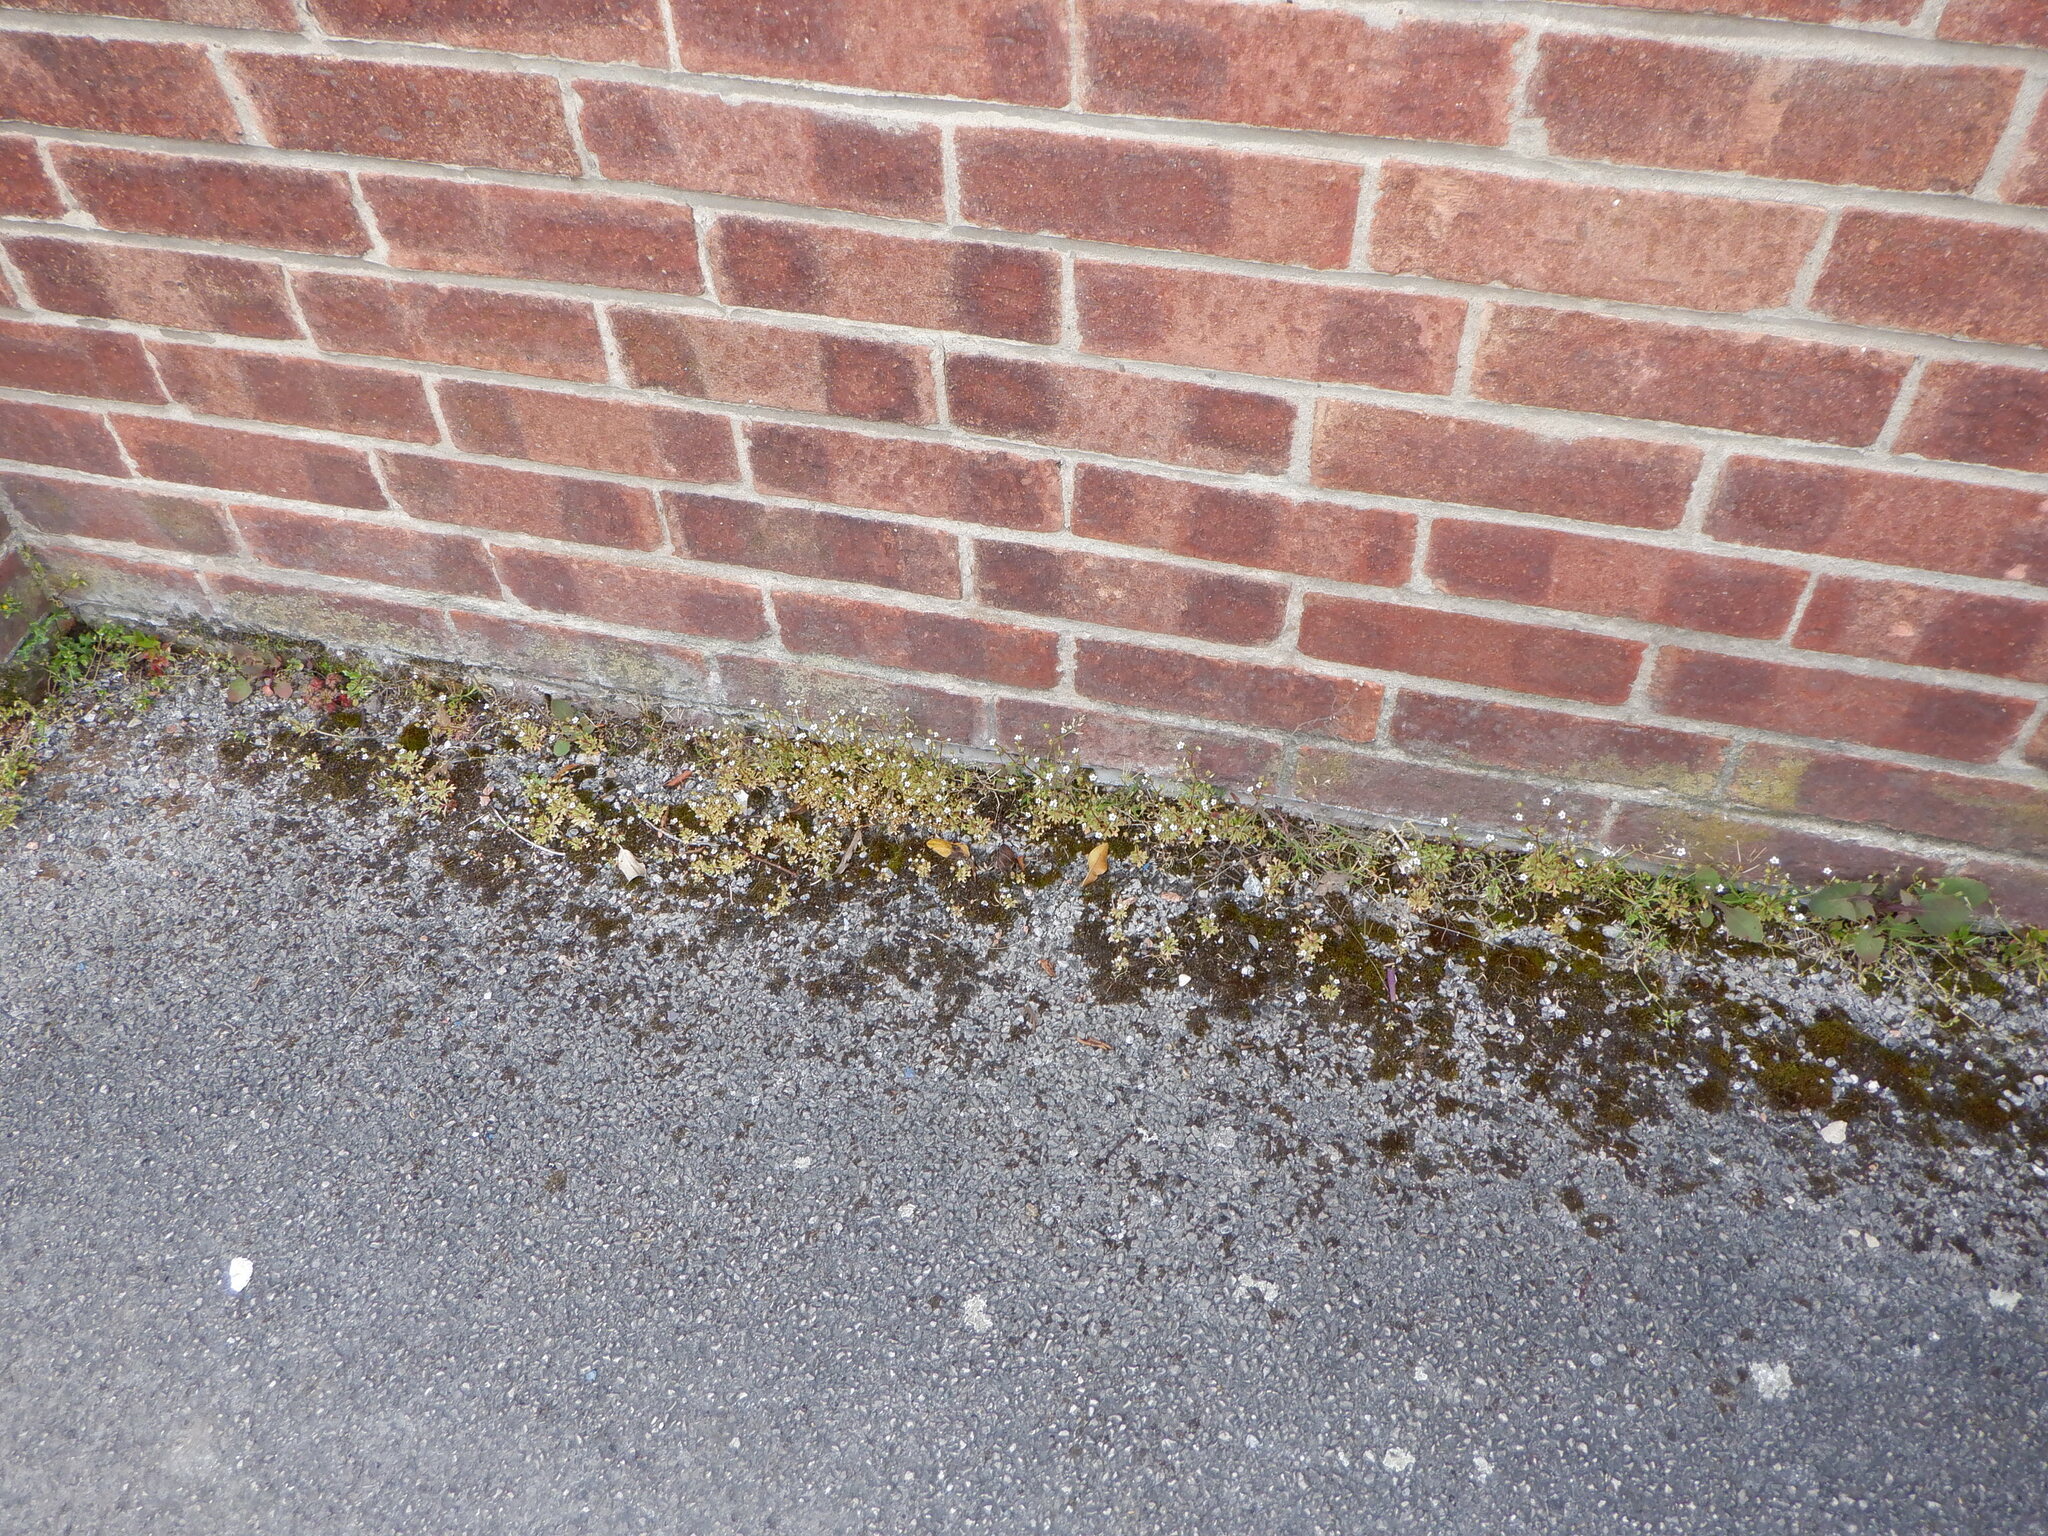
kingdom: Plantae
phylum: Tracheophyta
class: Magnoliopsida
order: Saxifragales
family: Saxifragaceae
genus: Saxifraga
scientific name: Saxifraga tridactylites
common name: Rue-leaved saxifrage
